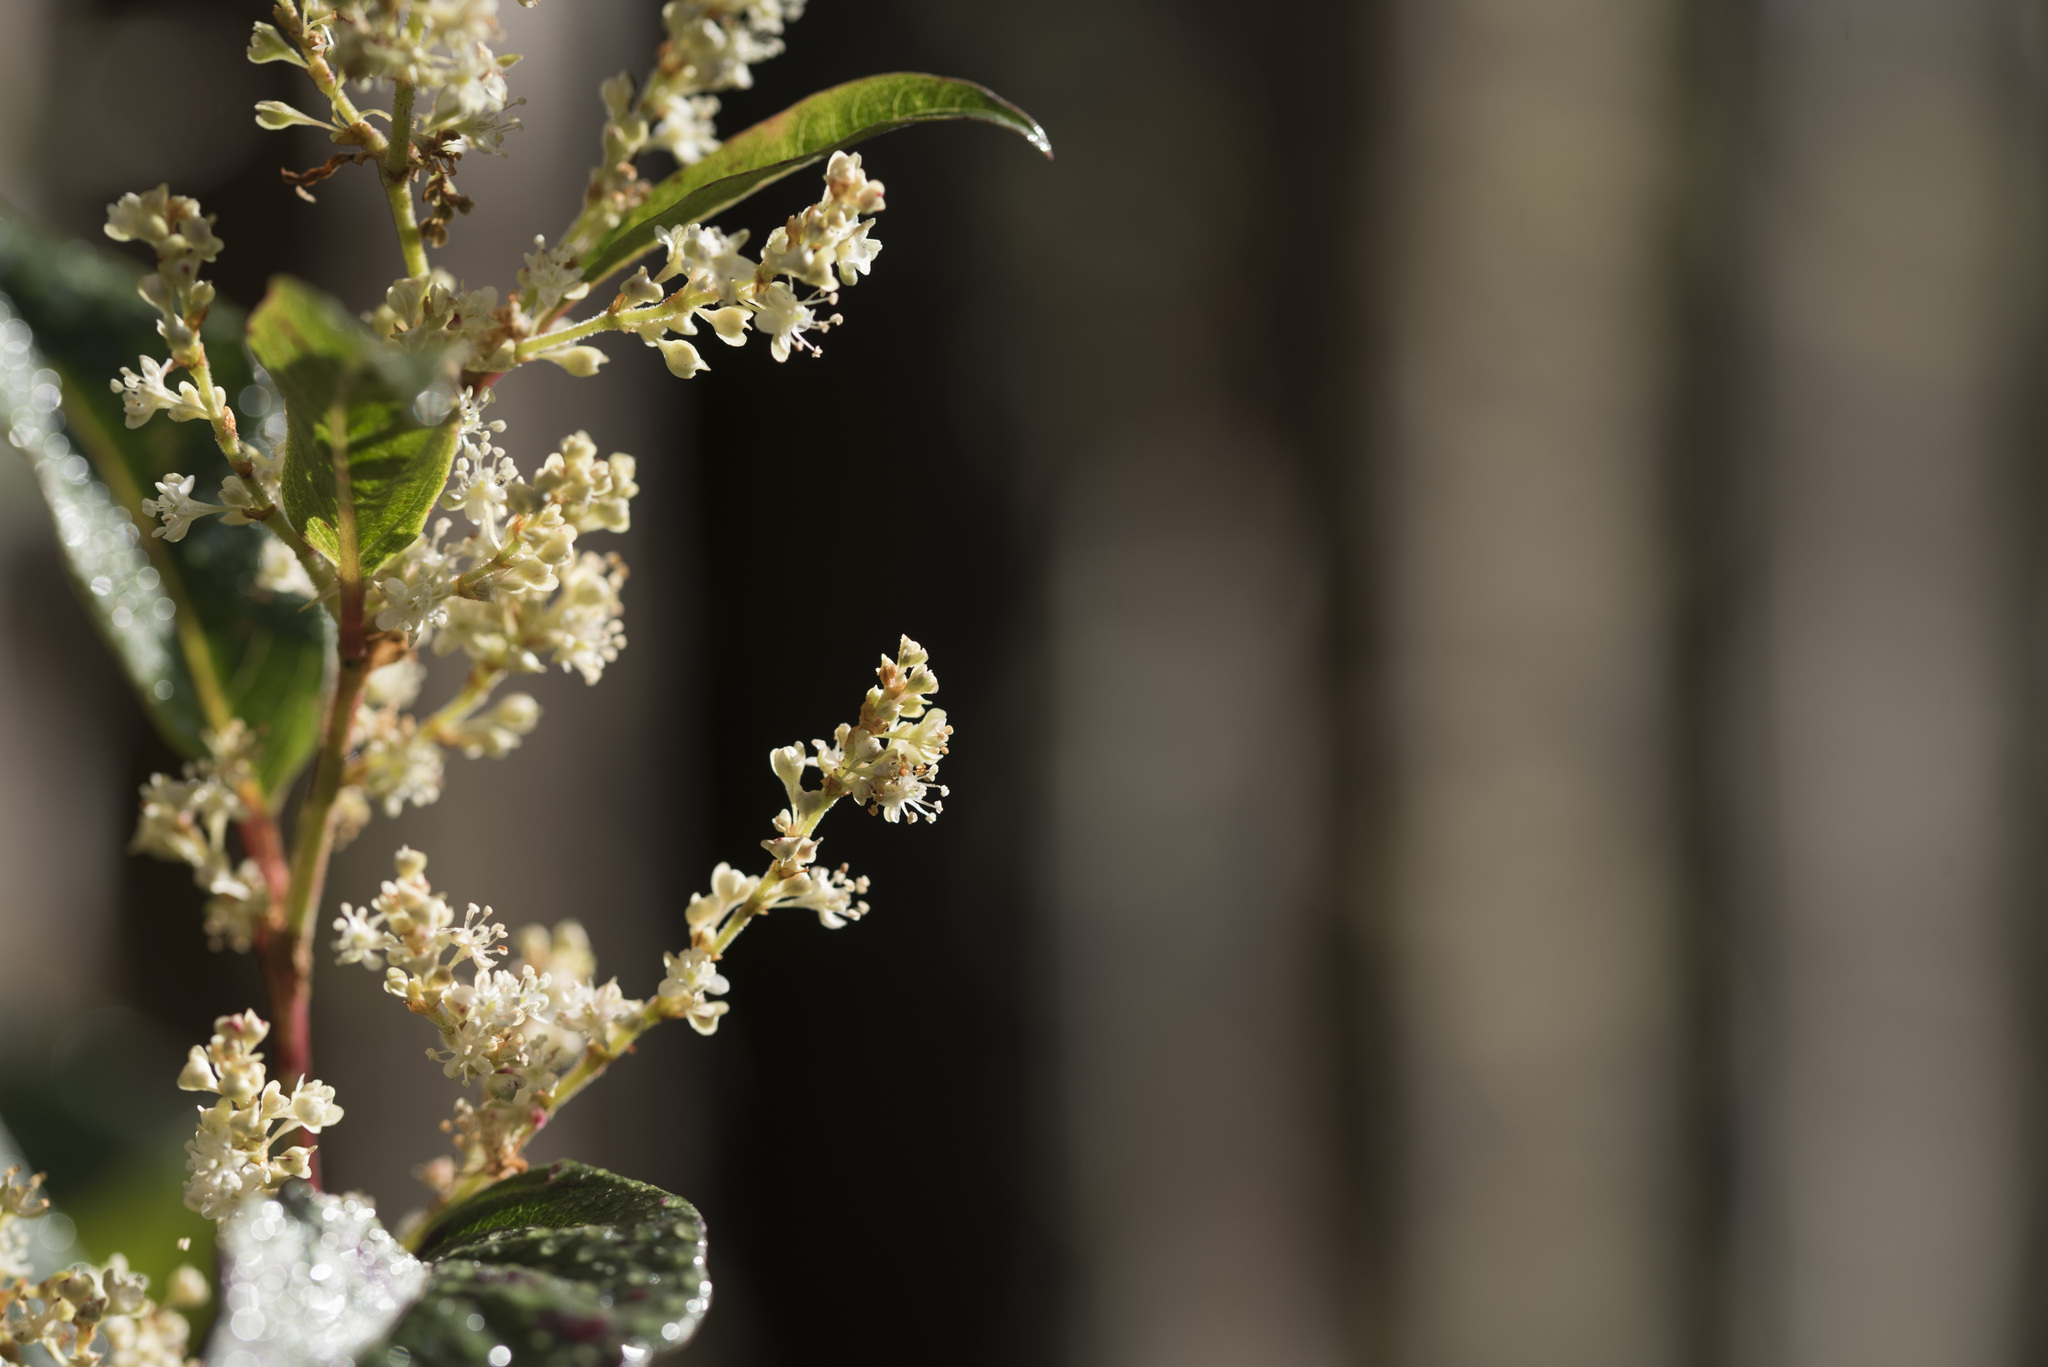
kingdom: Plantae
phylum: Tracheophyta
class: Magnoliopsida
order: Caryophyllales
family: Polygonaceae
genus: Reynoutria
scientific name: Reynoutria japonica
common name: Japanese knotweed
